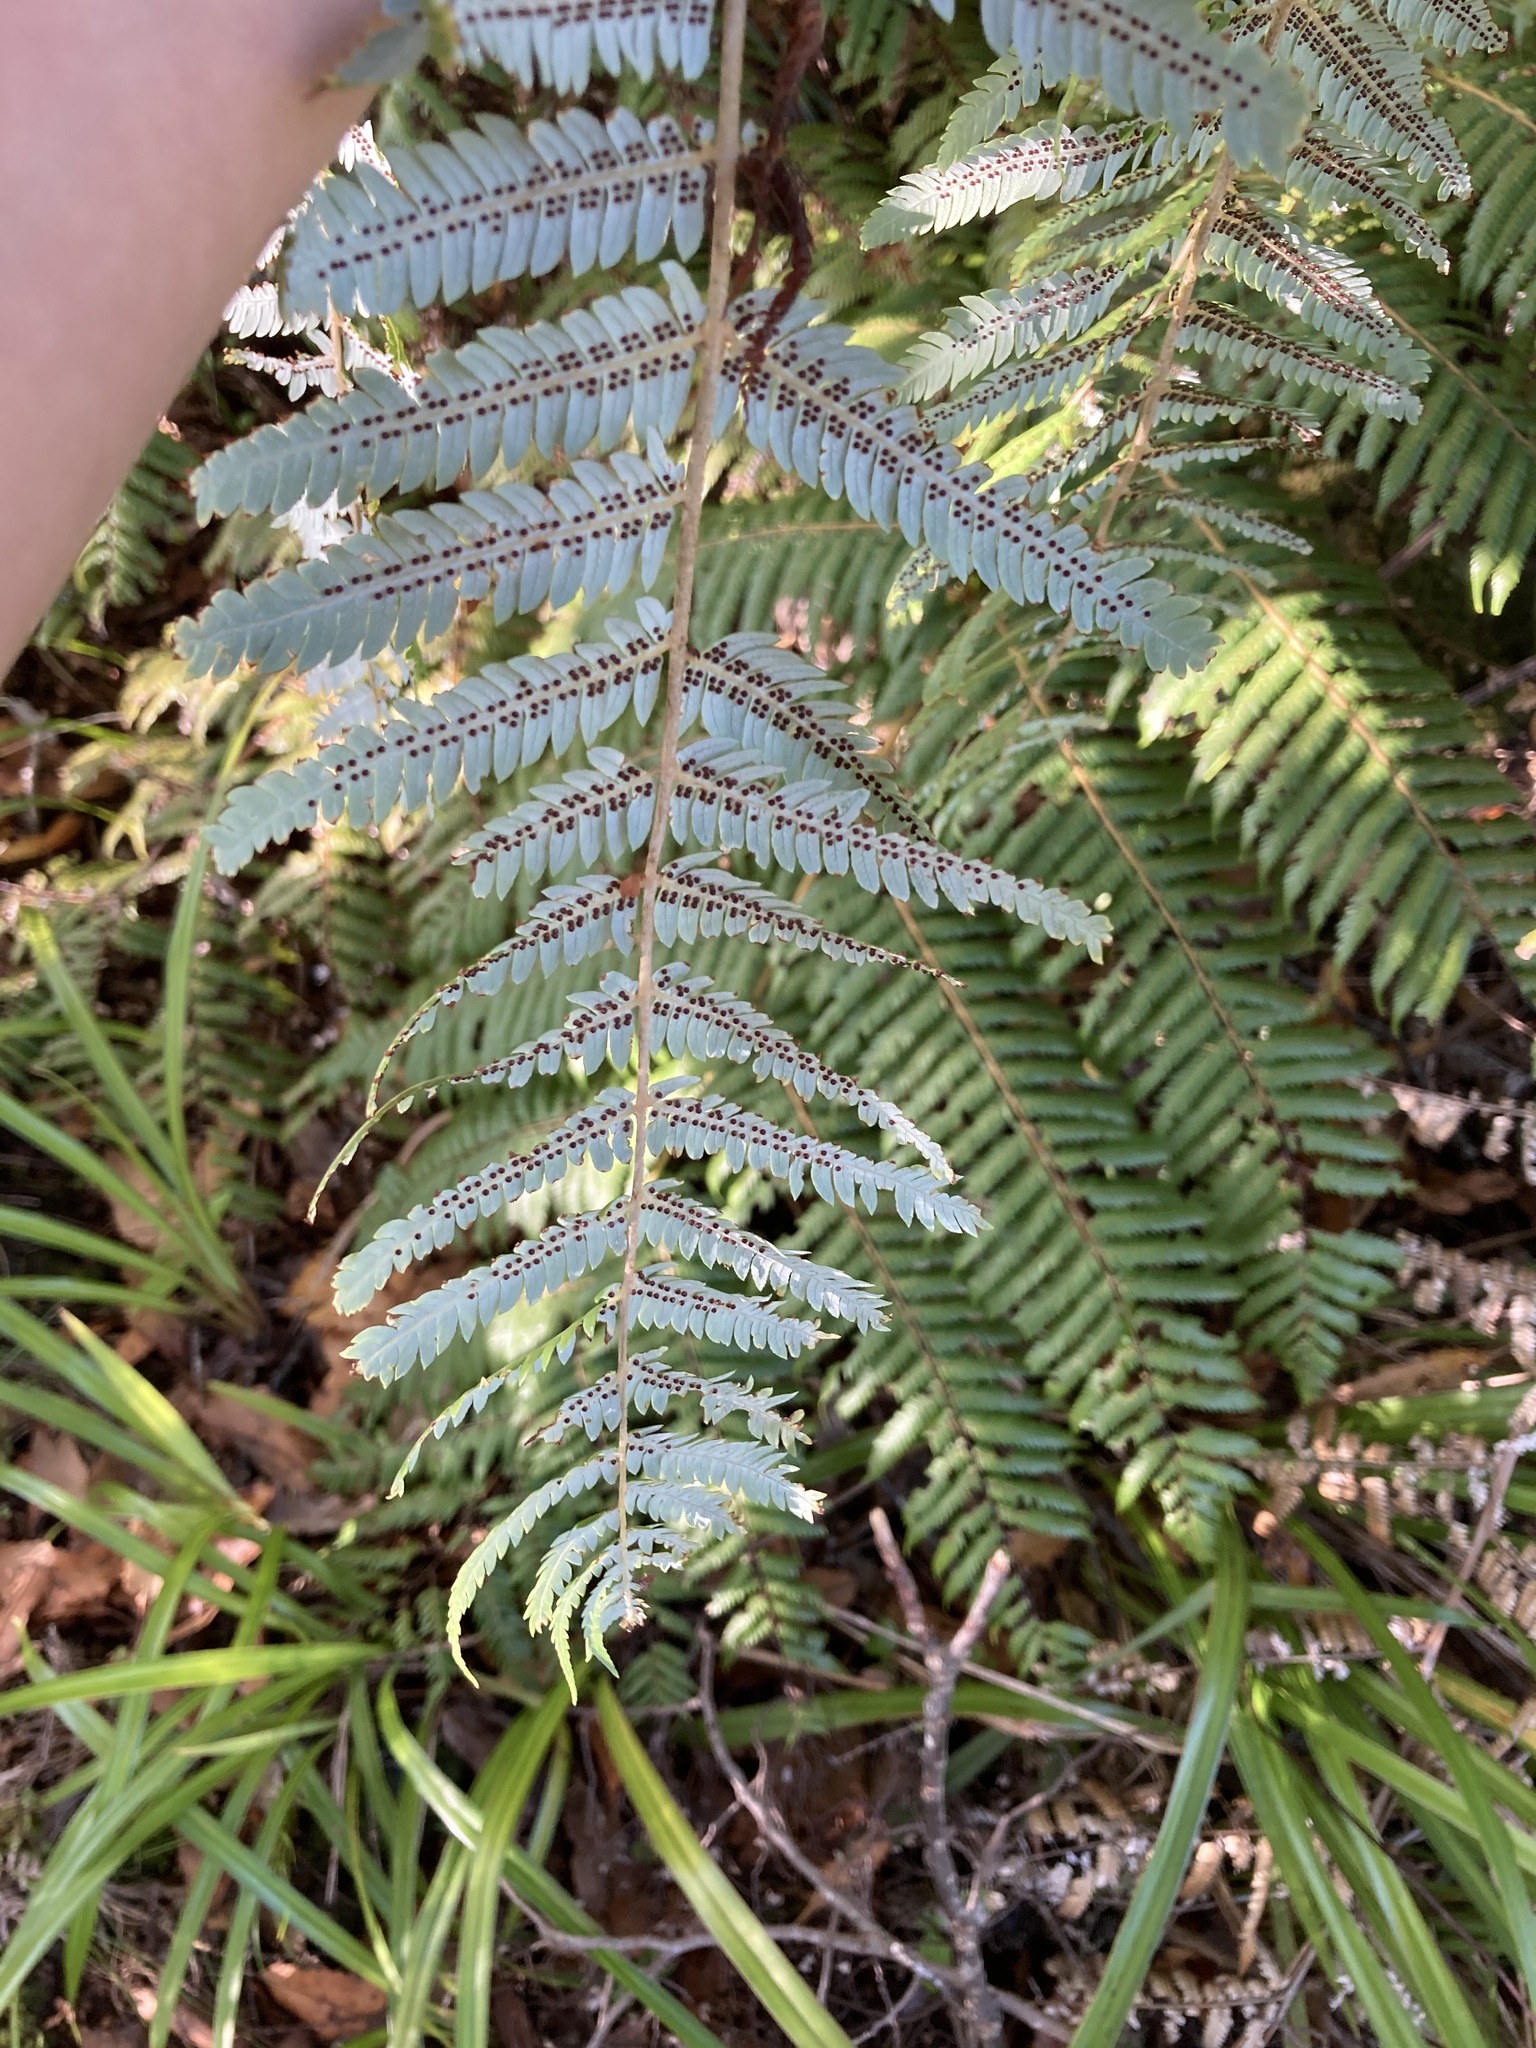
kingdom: Plantae
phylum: Tracheophyta
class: Polypodiopsida
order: Cyatheales
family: Cyatheaceae
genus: Alsophila
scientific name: Alsophila dealbata
